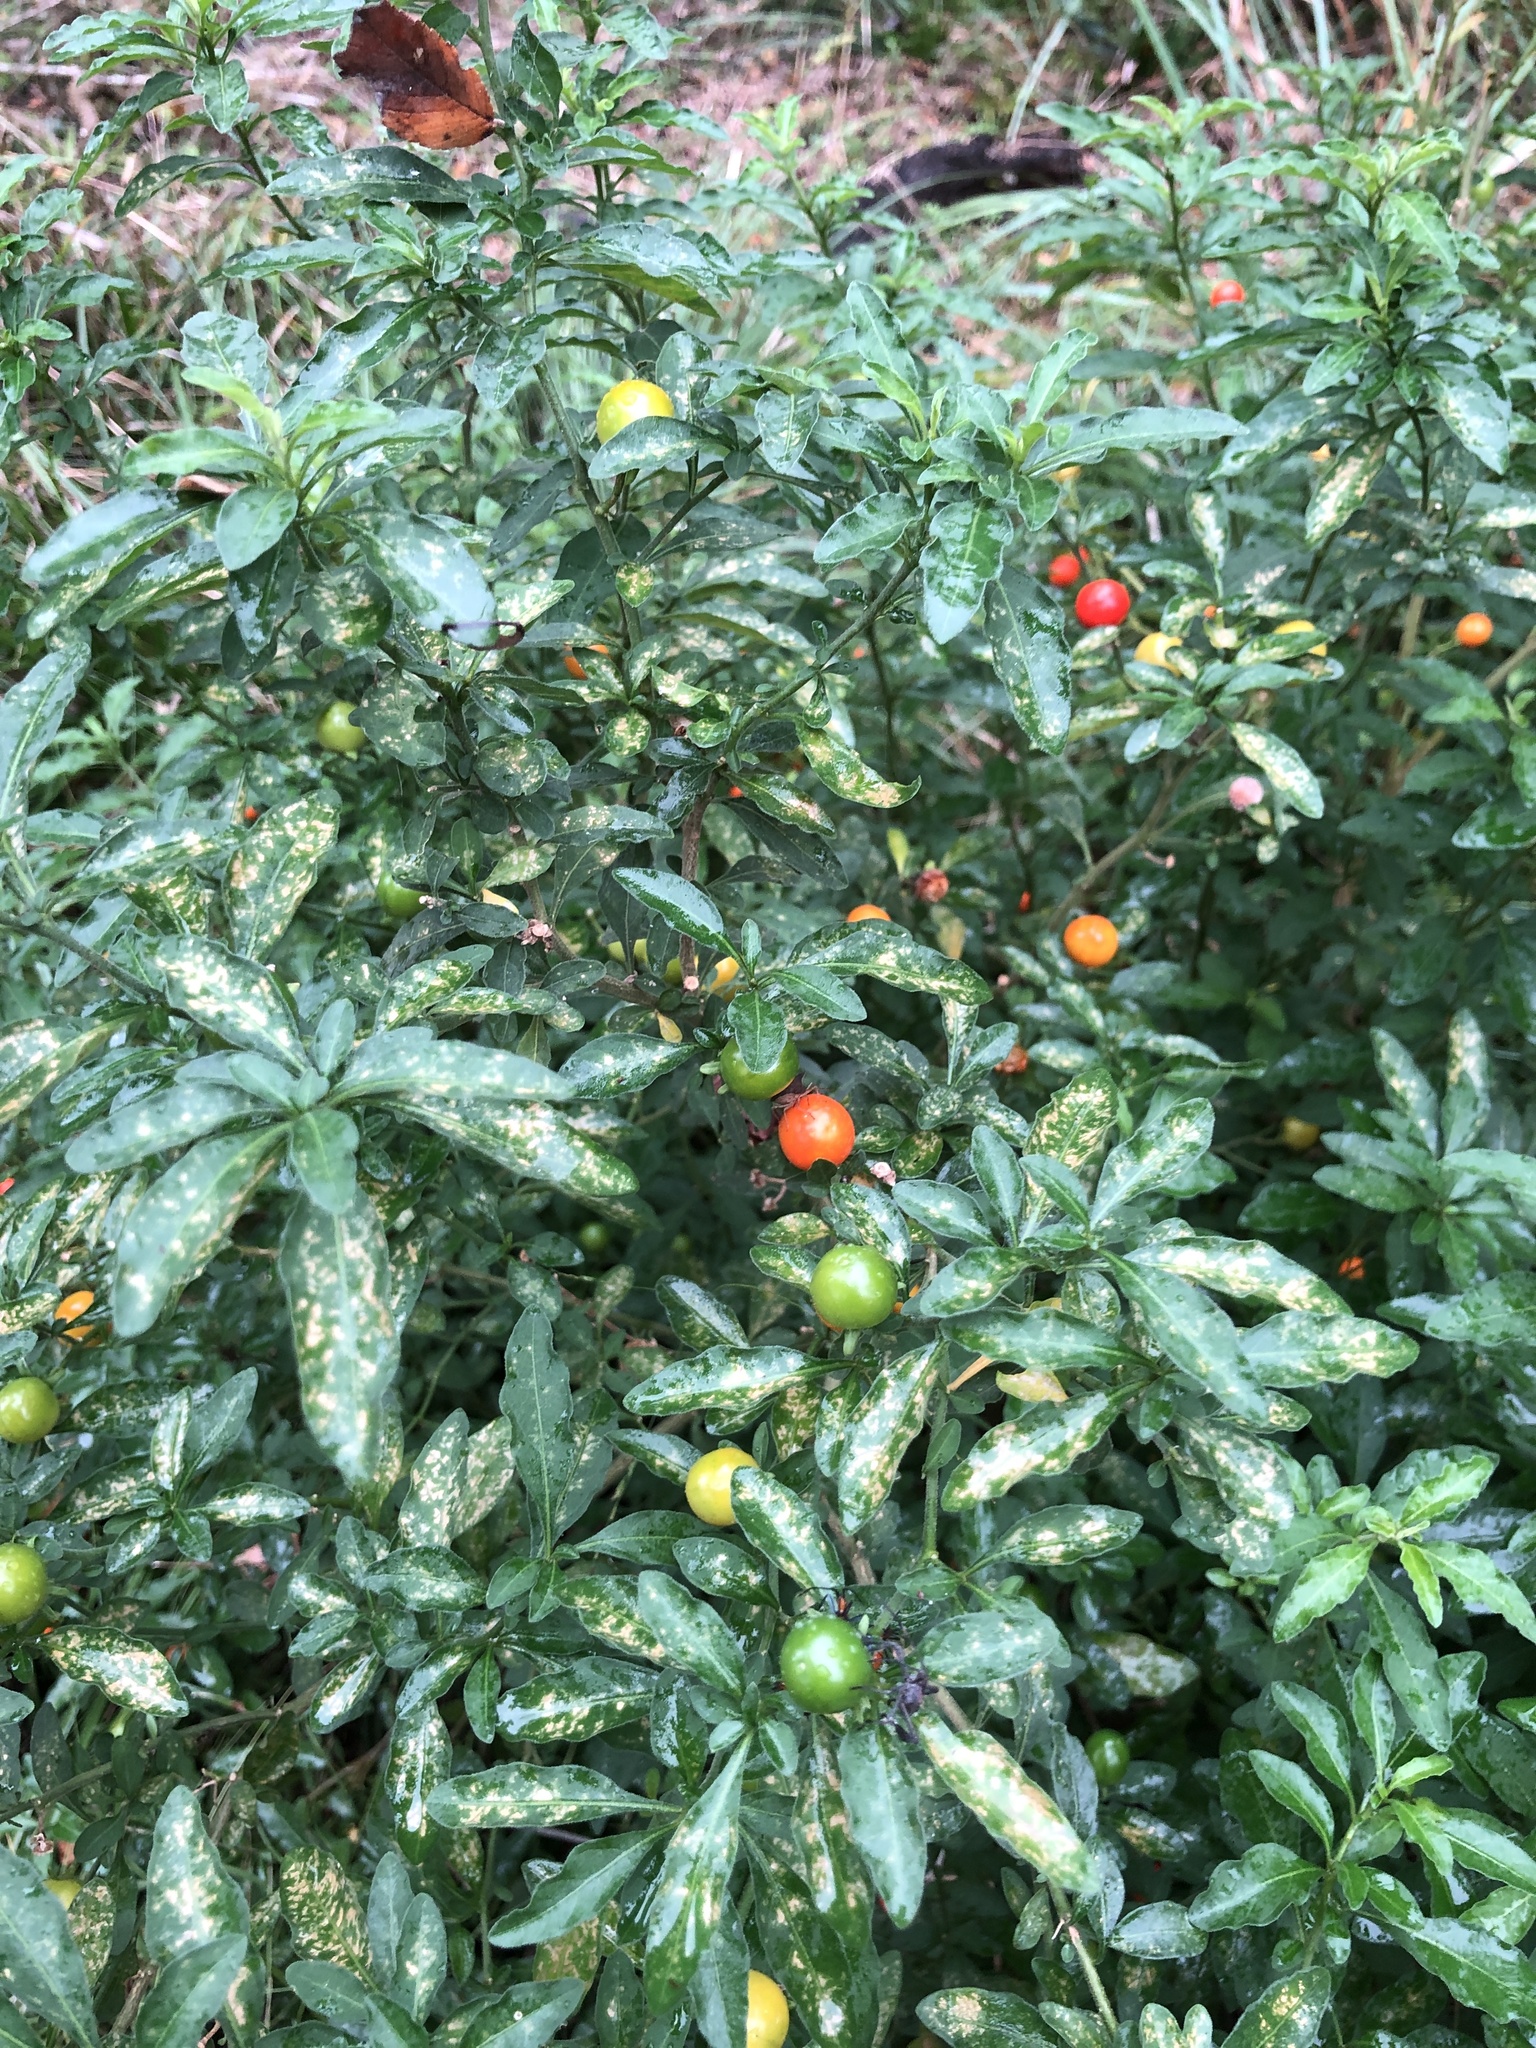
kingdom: Plantae
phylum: Tracheophyta
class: Magnoliopsida
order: Solanales
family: Solanaceae
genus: Solanum
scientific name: Solanum pseudocapsicum
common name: Jerusalem cherry
